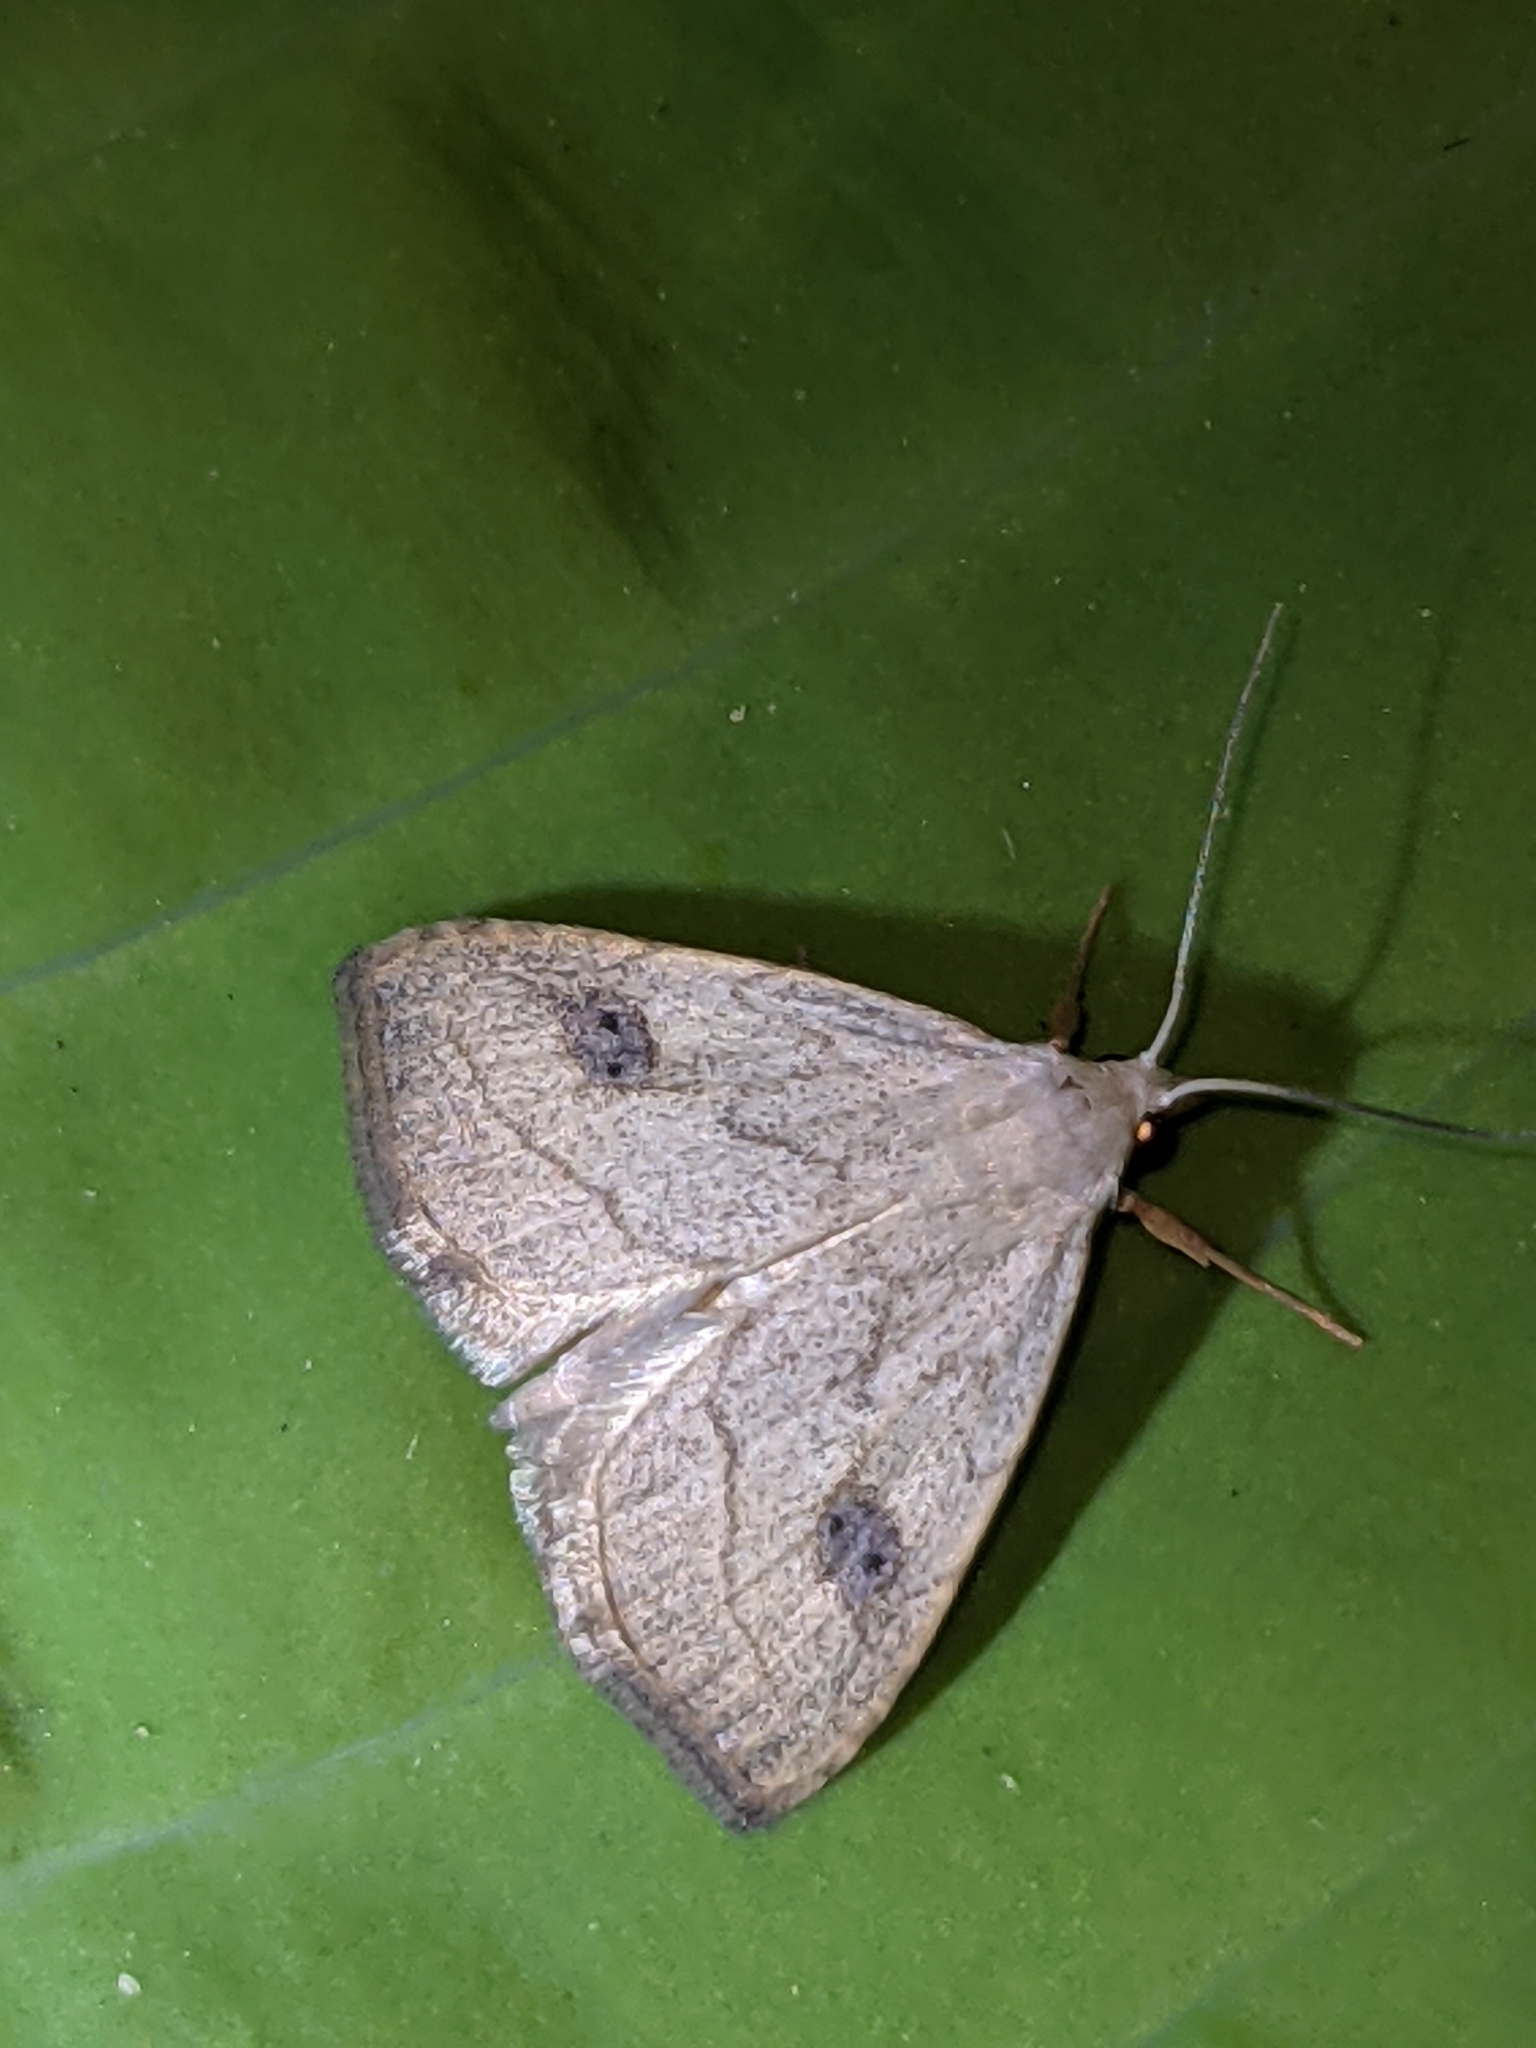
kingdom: Animalia
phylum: Arthropoda
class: Insecta
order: Lepidoptera
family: Erebidae
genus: Rivula
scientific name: Rivula propinqualis
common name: Spotted grass moth
